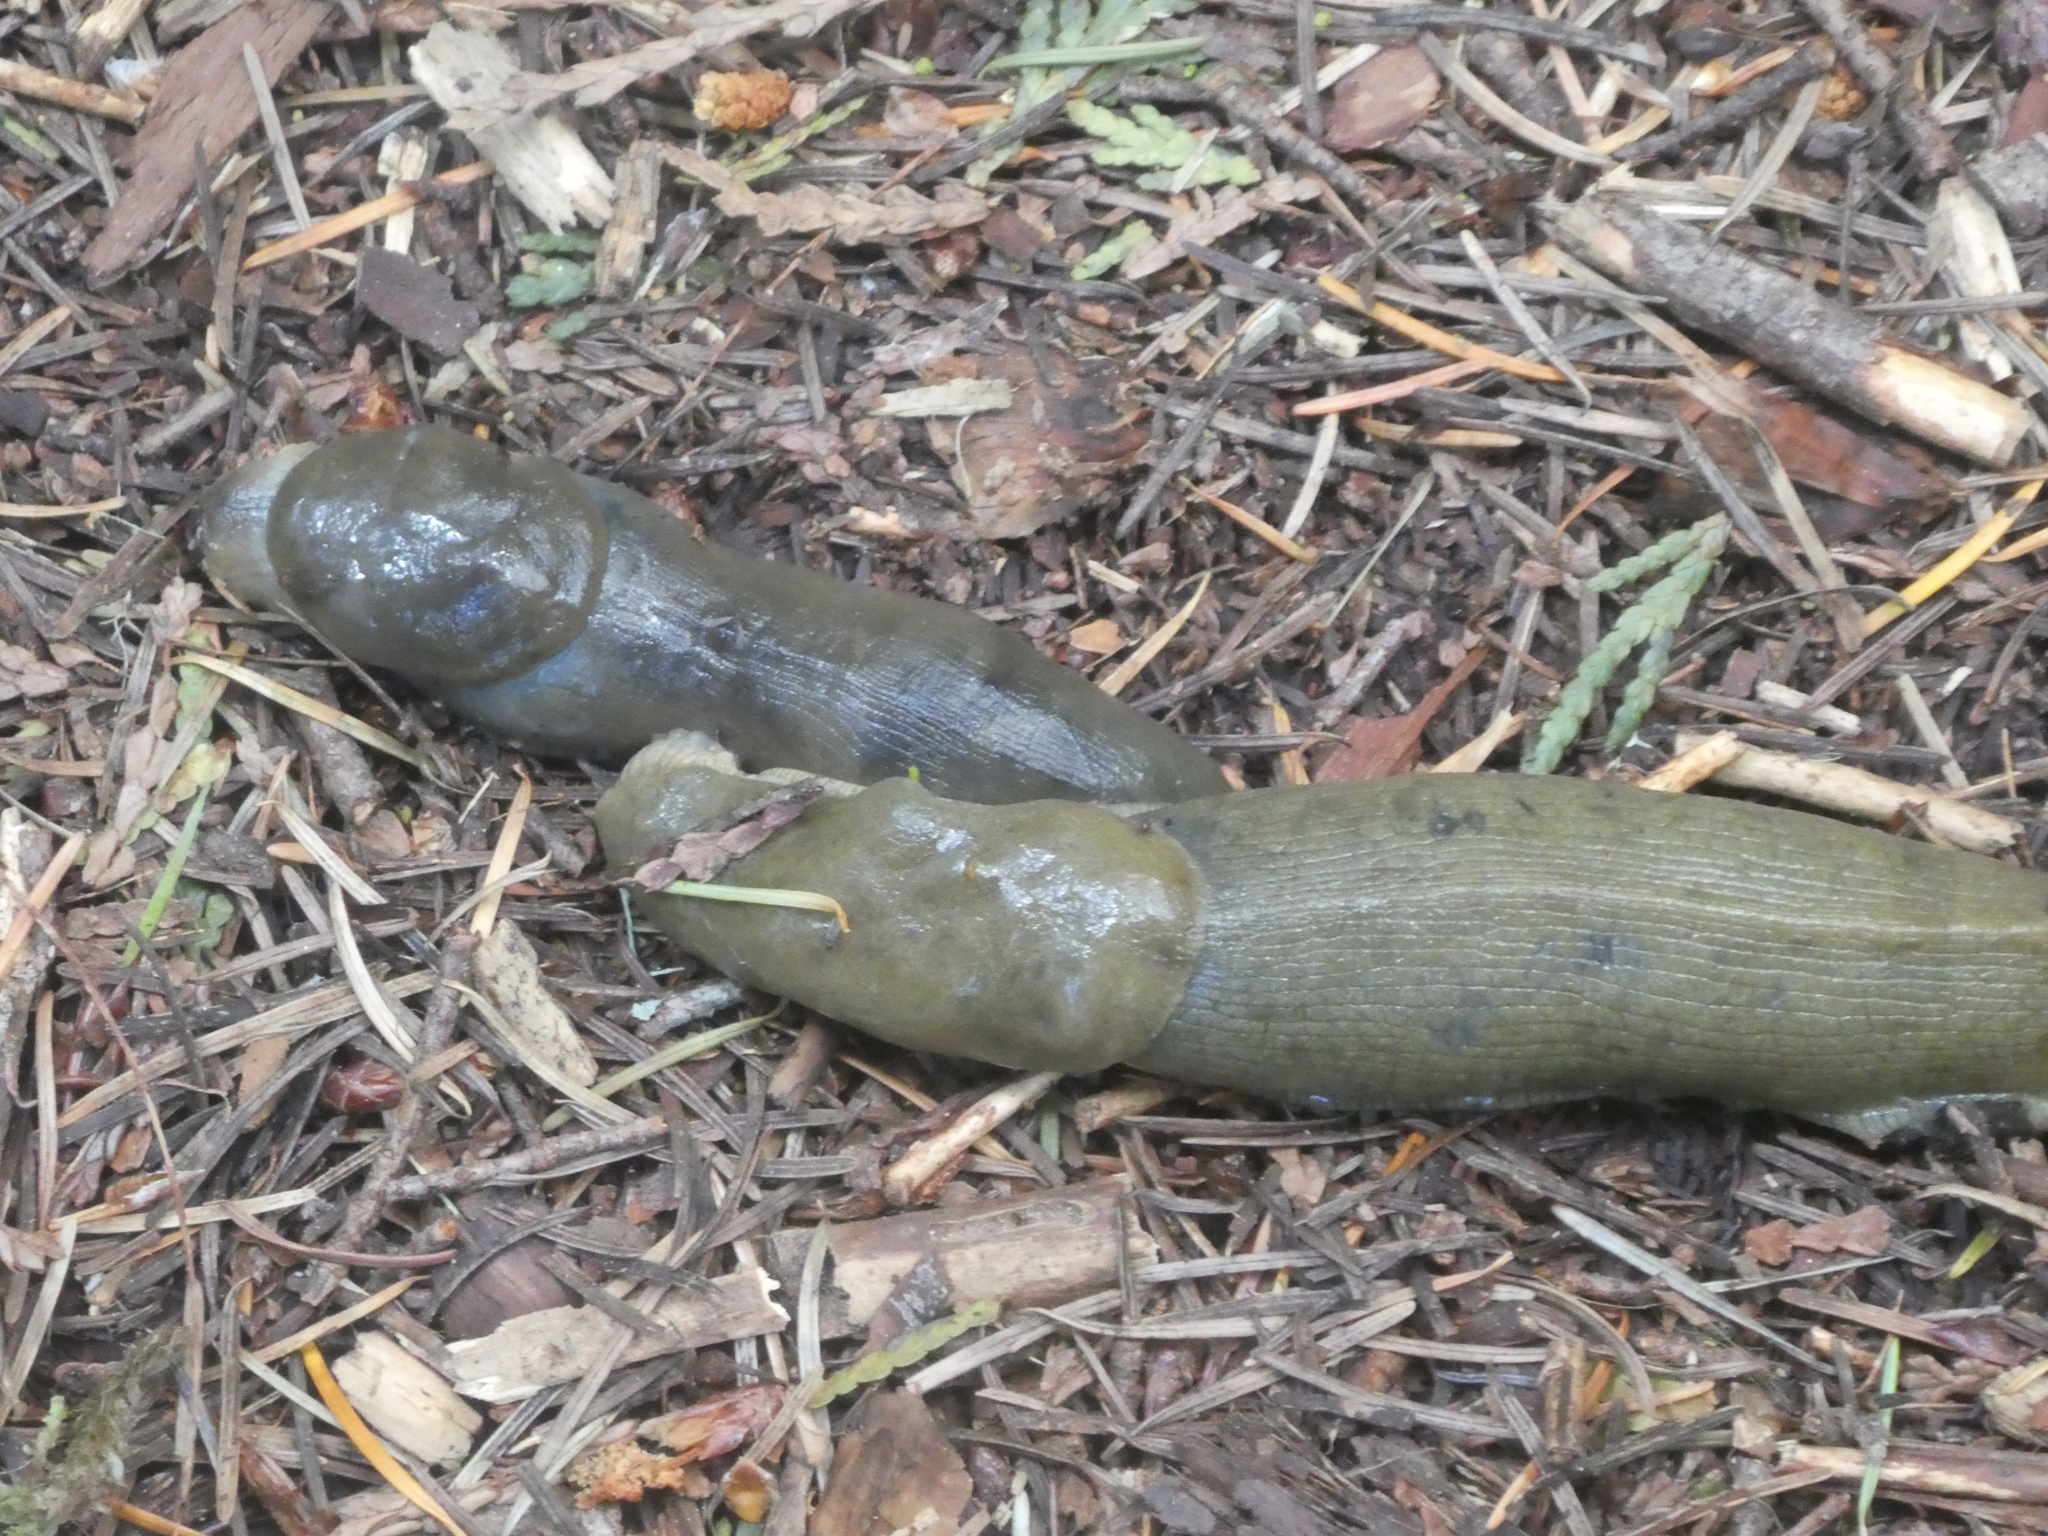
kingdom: Animalia
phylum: Mollusca
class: Gastropoda
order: Stylommatophora
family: Ariolimacidae
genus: Ariolimax
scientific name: Ariolimax columbianus
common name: Pacific banana slug
